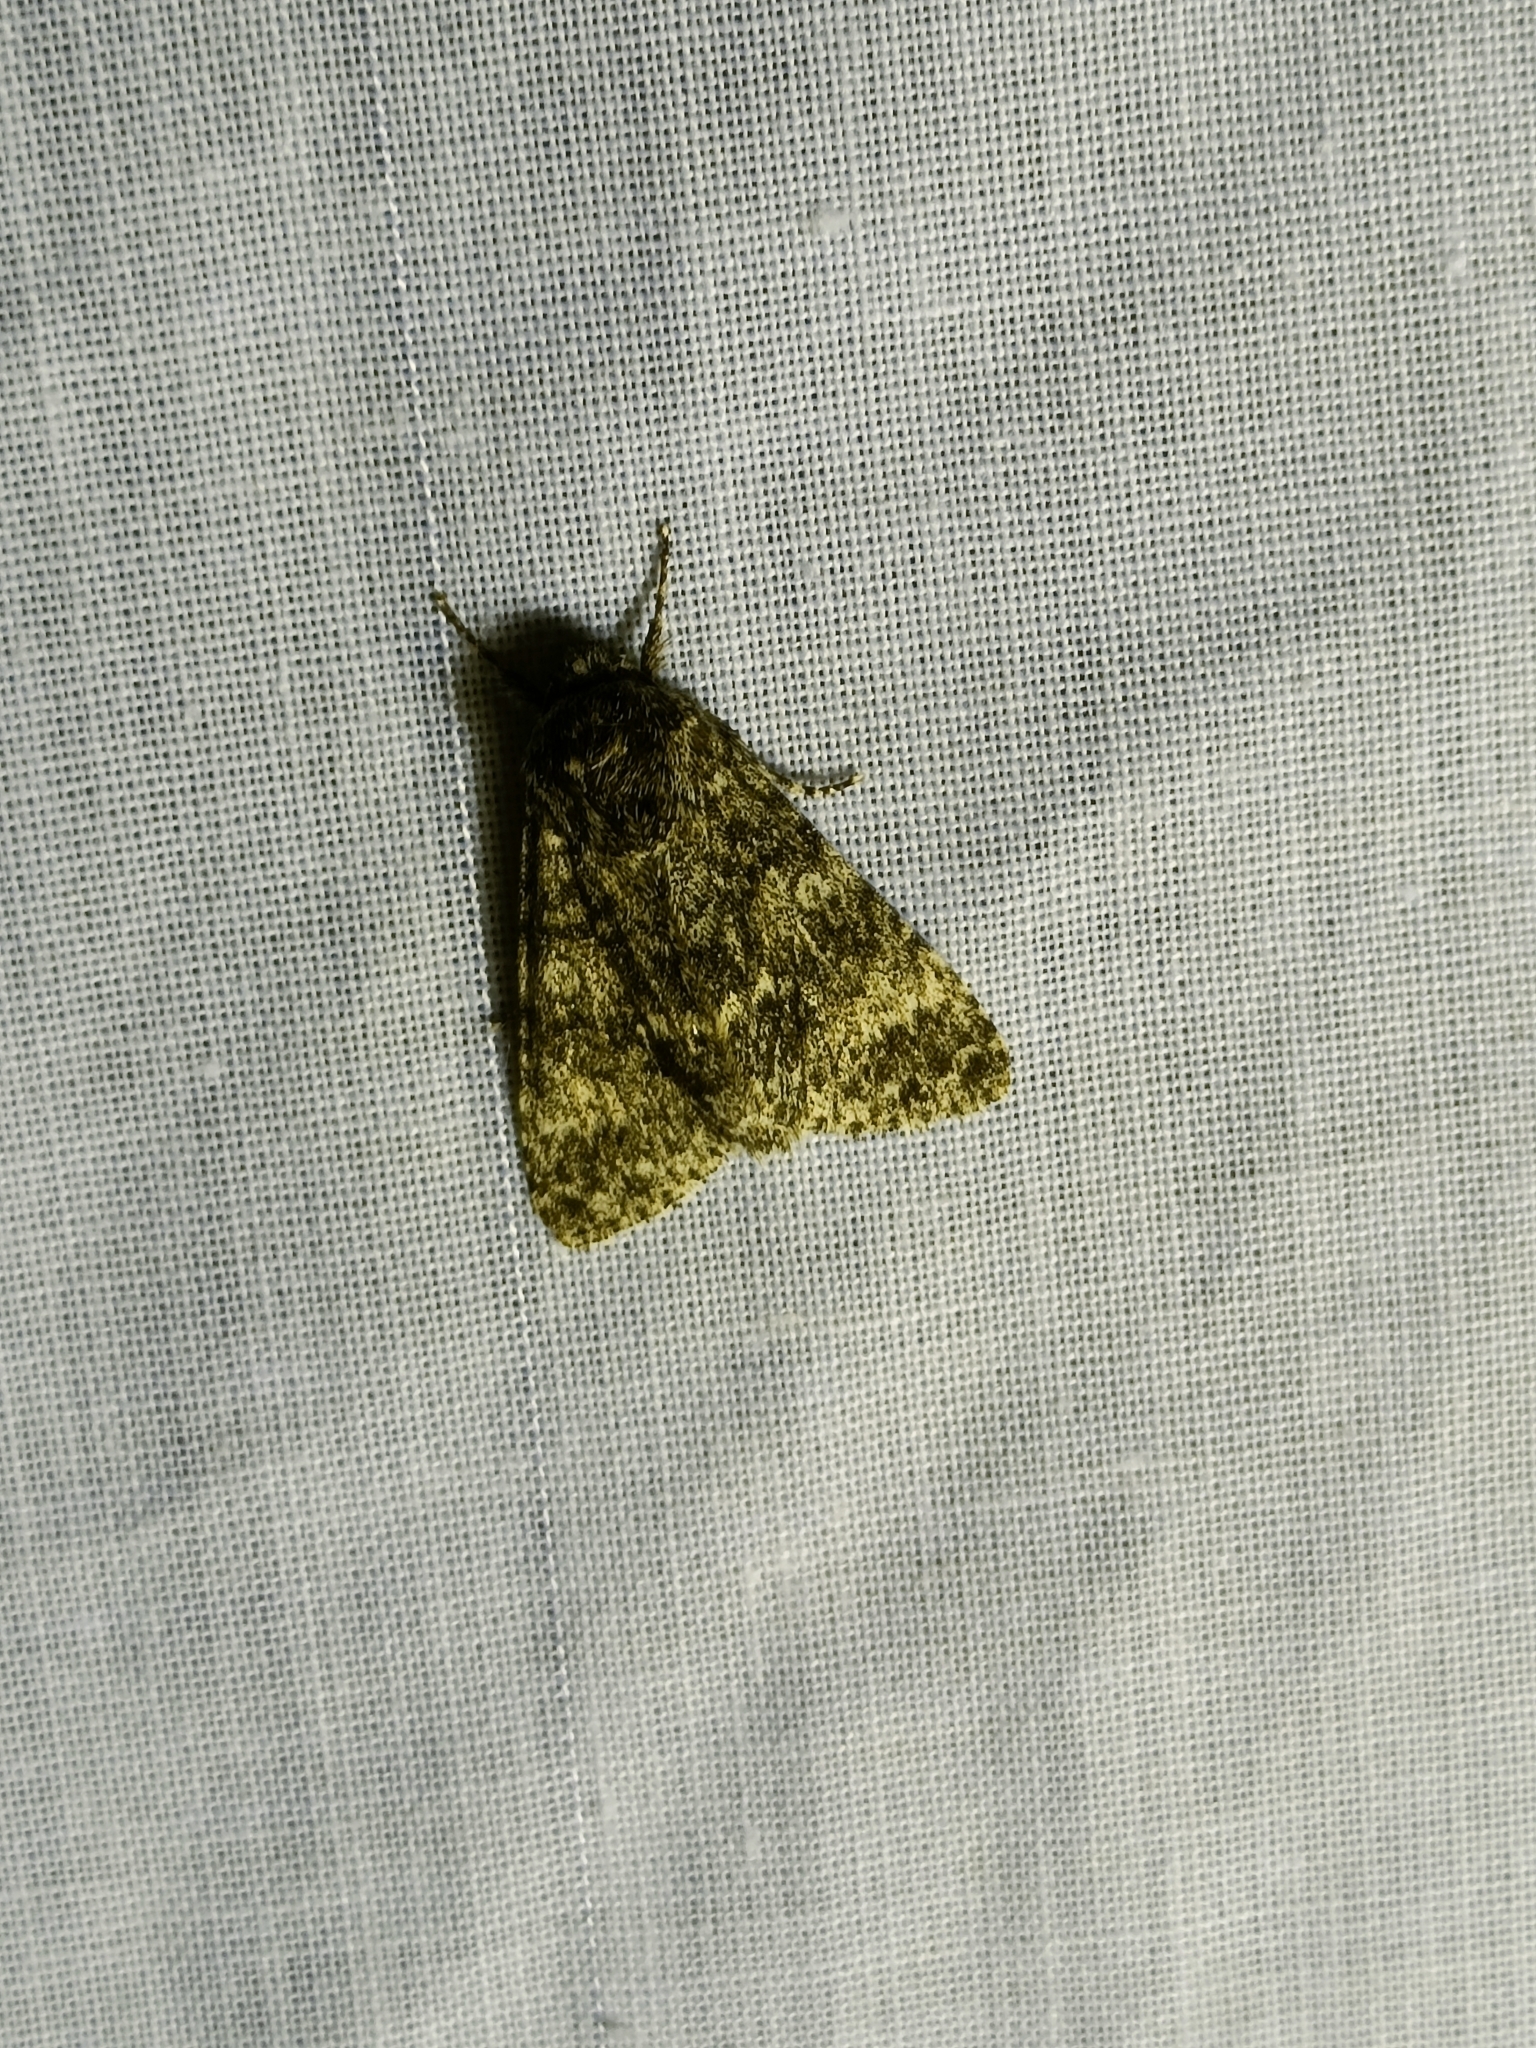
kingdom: Animalia
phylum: Arthropoda
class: Insecta
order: Lepidoptera
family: Noctuidae
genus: Acronicta
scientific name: Acronicta megacephala
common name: Poplar grey
